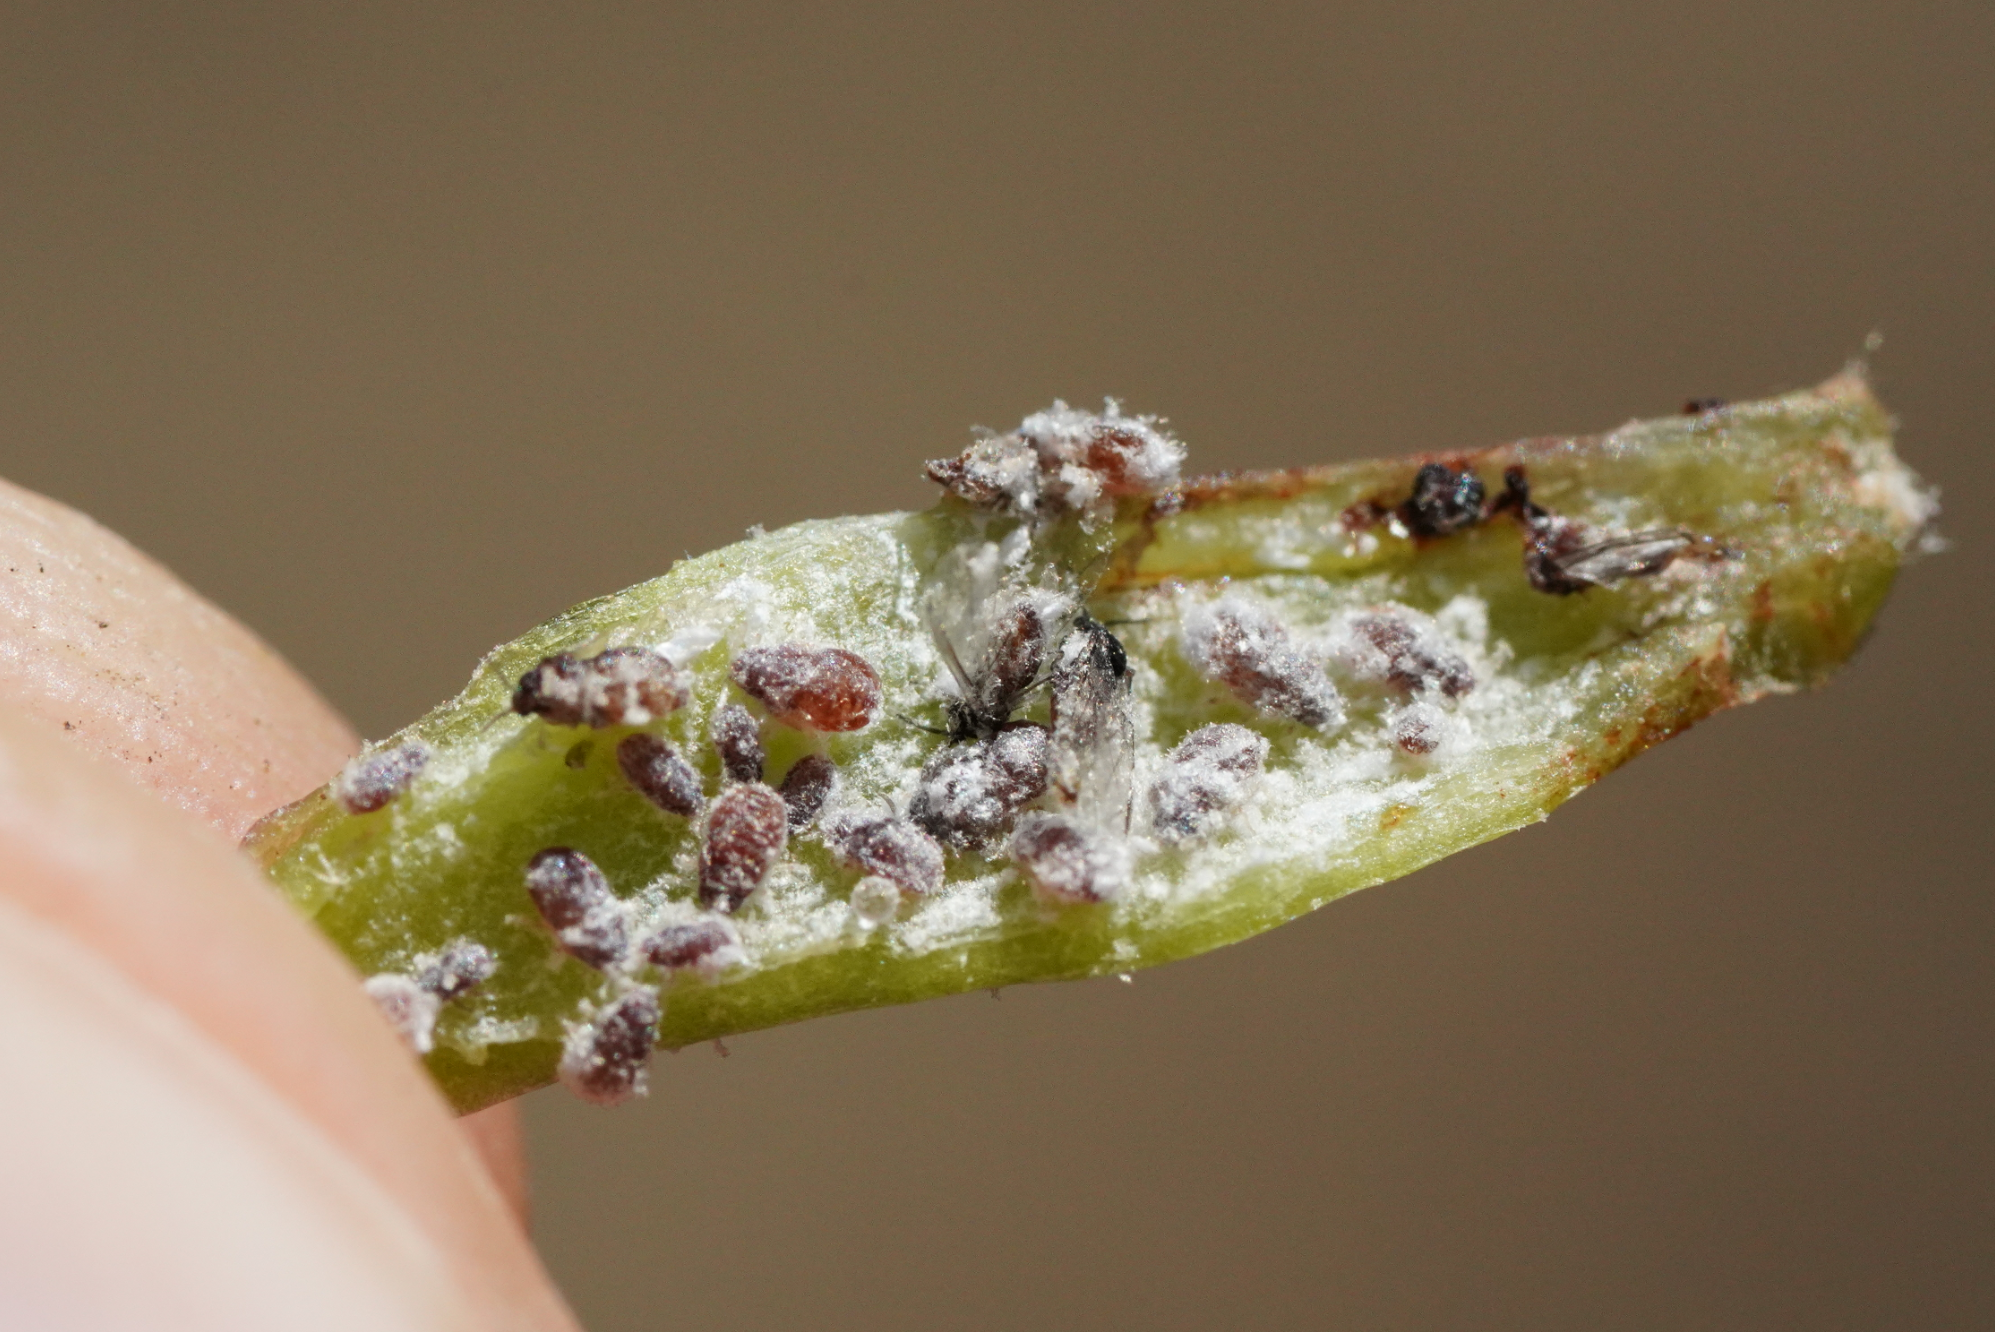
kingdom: Animalia
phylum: Arthropoda
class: Insecta
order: Hemiptera
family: Aphididae
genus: Hormaphis
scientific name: Hormaphis hamamelidis
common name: Witch-hazel cone gall aphid
